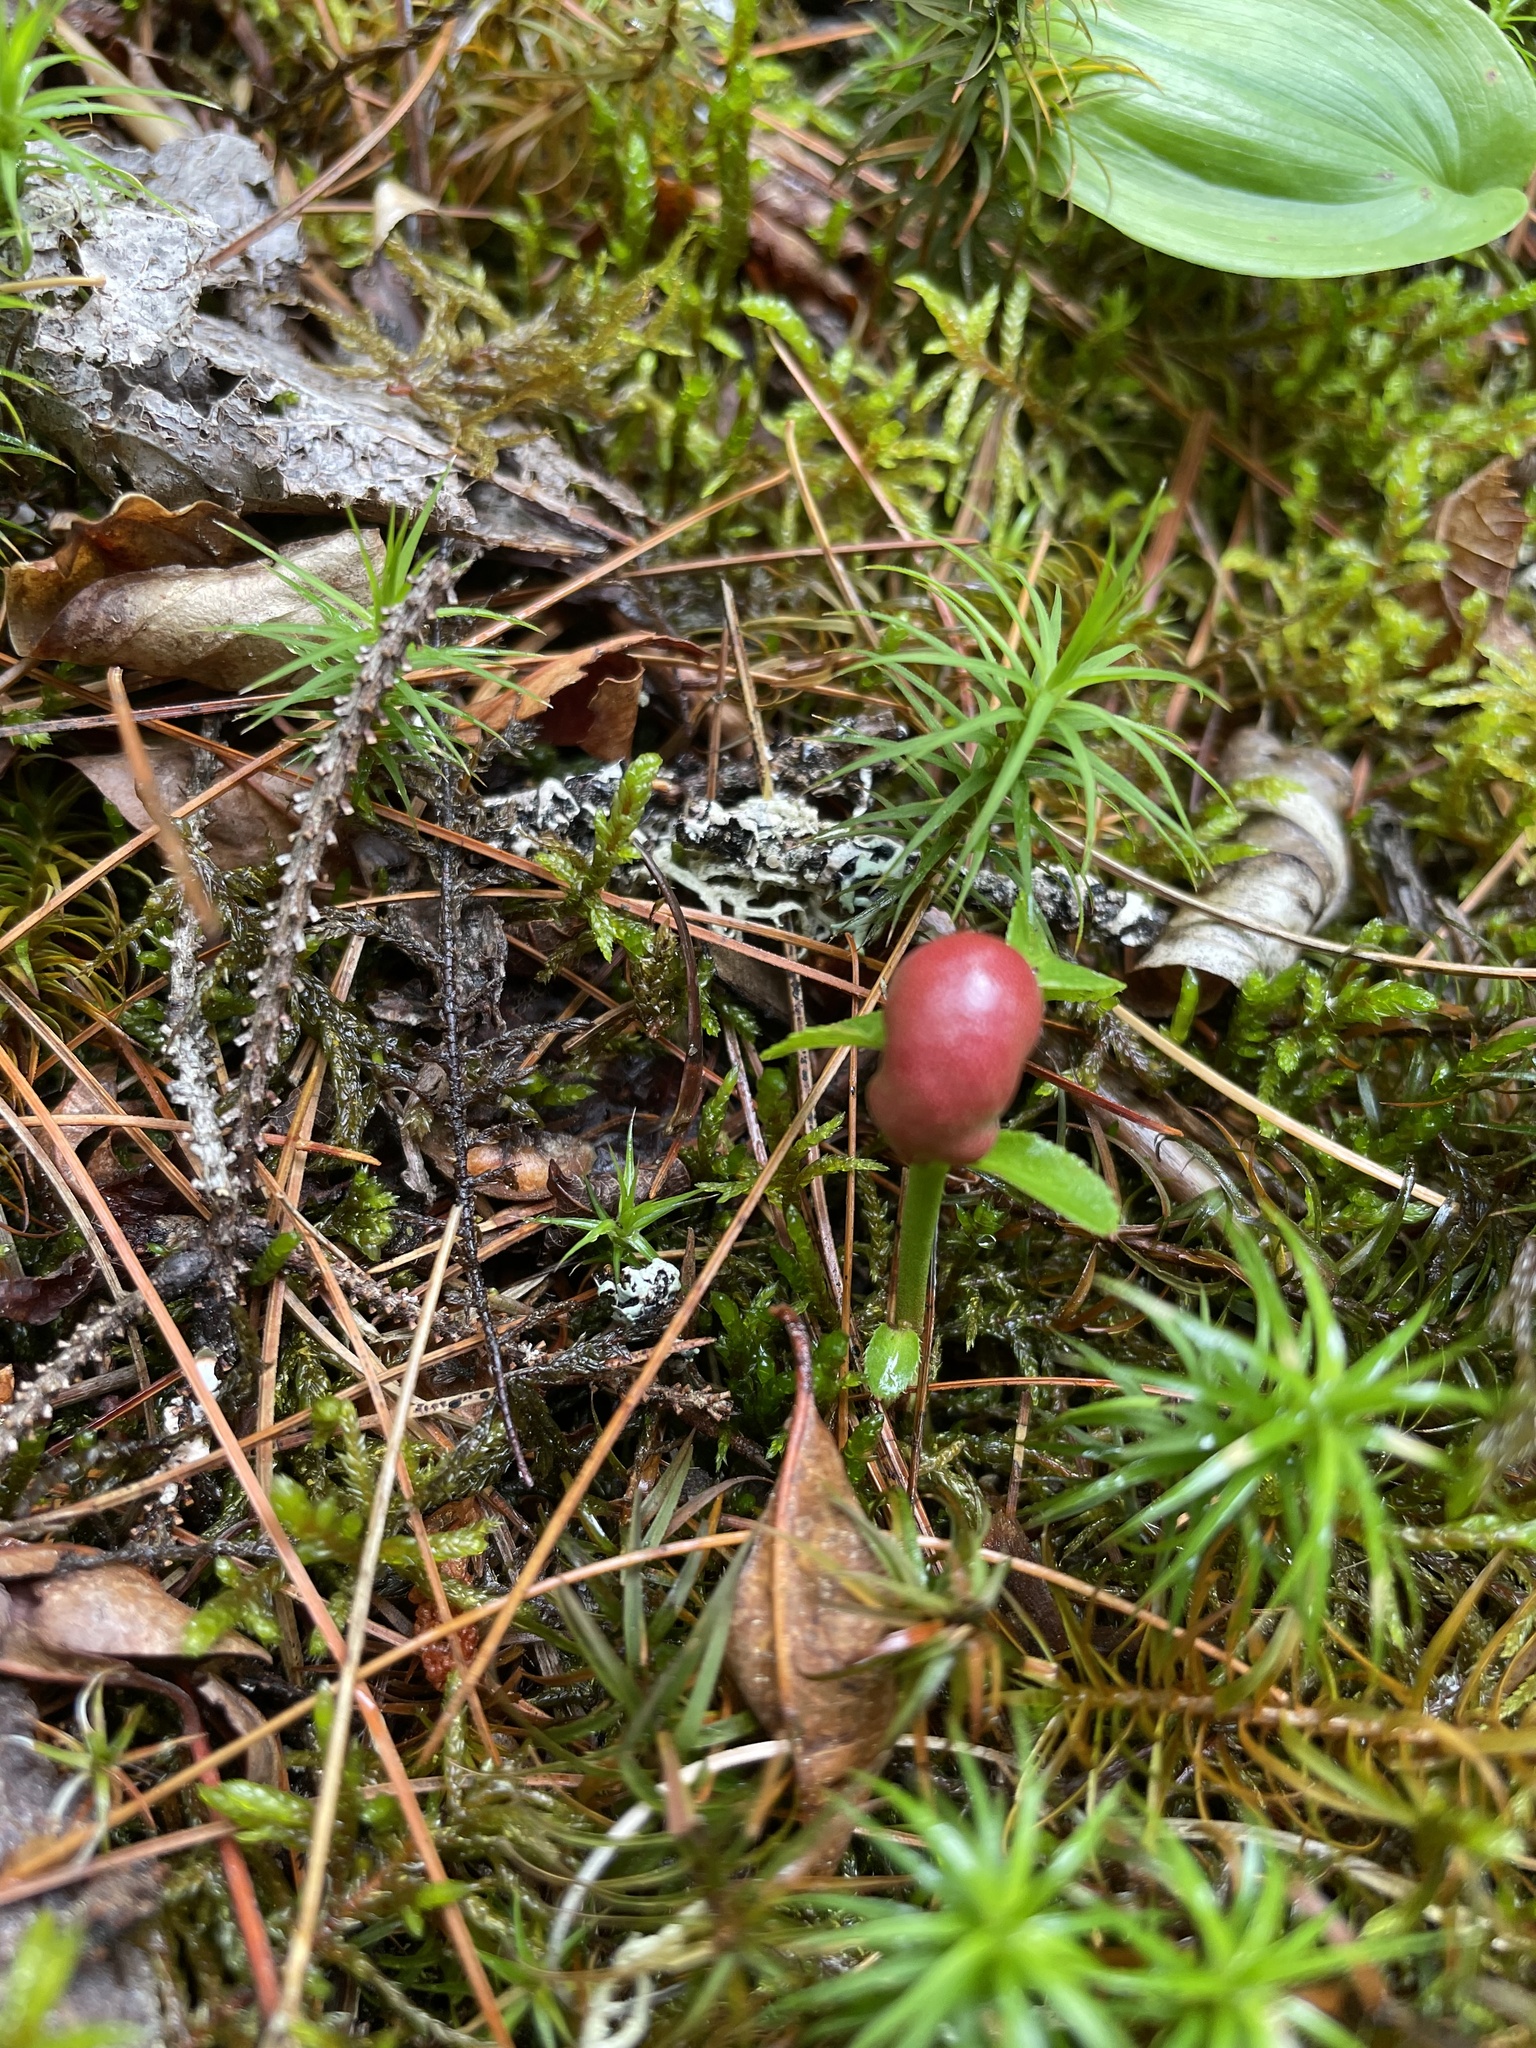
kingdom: Animalia
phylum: Arthropoda
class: Insecta
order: Hymenoptera
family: Pteromalidae
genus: Hemadas
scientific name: Hemadas nubilipennis
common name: Blueberry stem gall wasp
